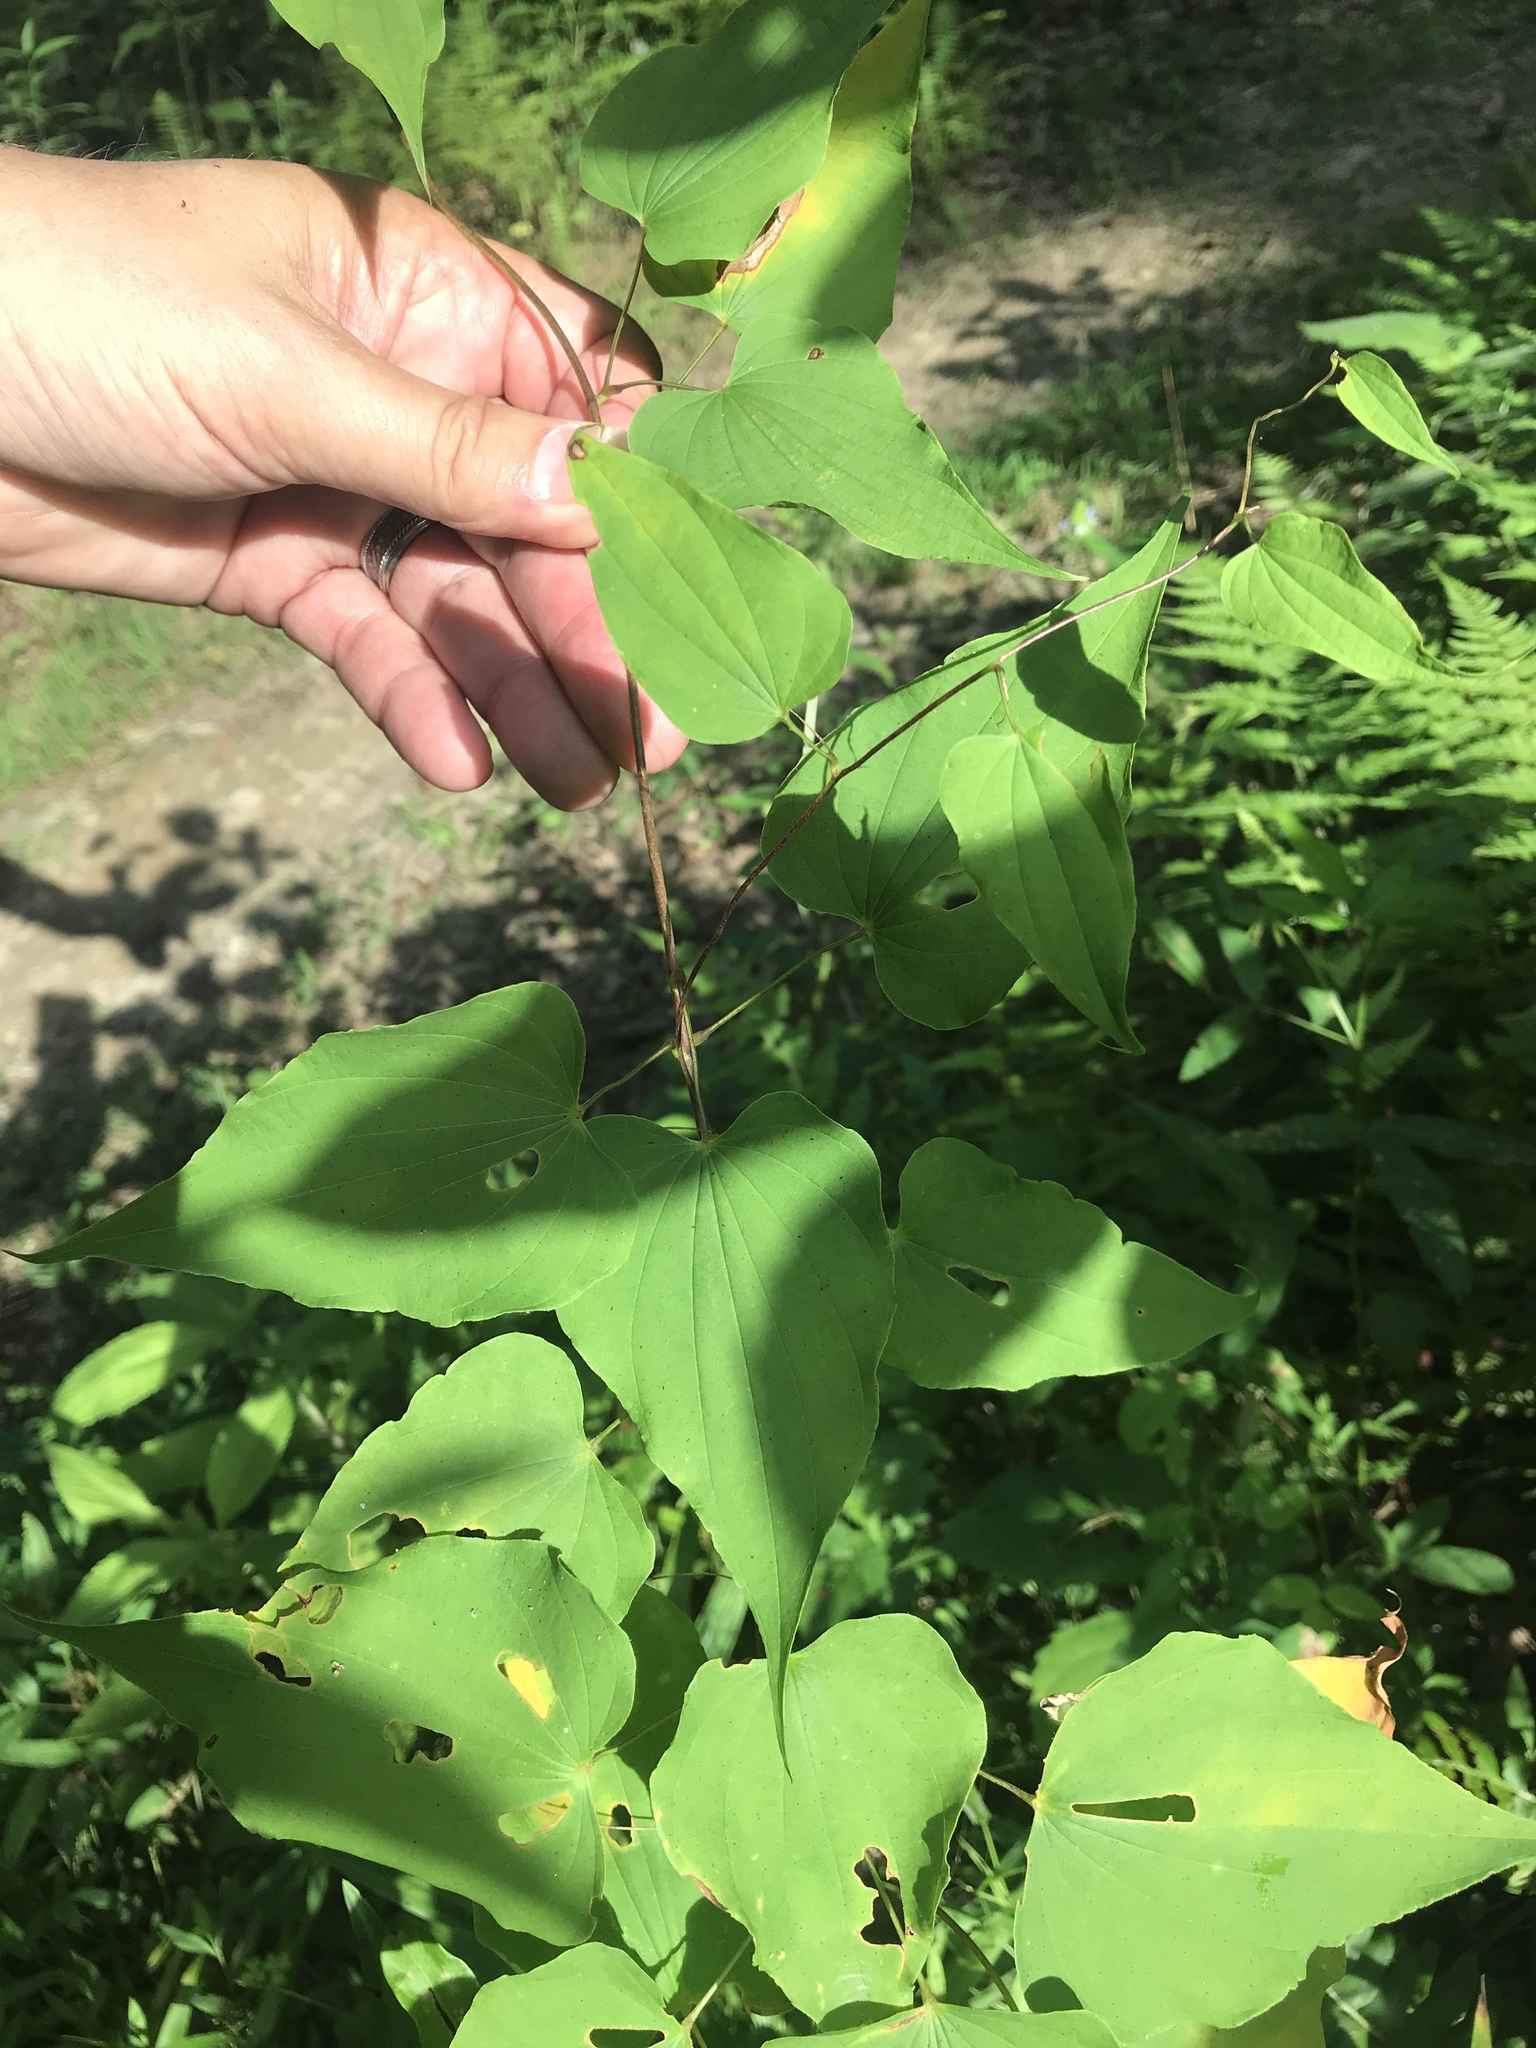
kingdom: Plantae
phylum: Tracheophyta
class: Liliopsida
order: Dioscoreales
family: Dioscoreaceae
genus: Dioscorea
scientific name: Dioscorea villosa
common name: Wild yam
